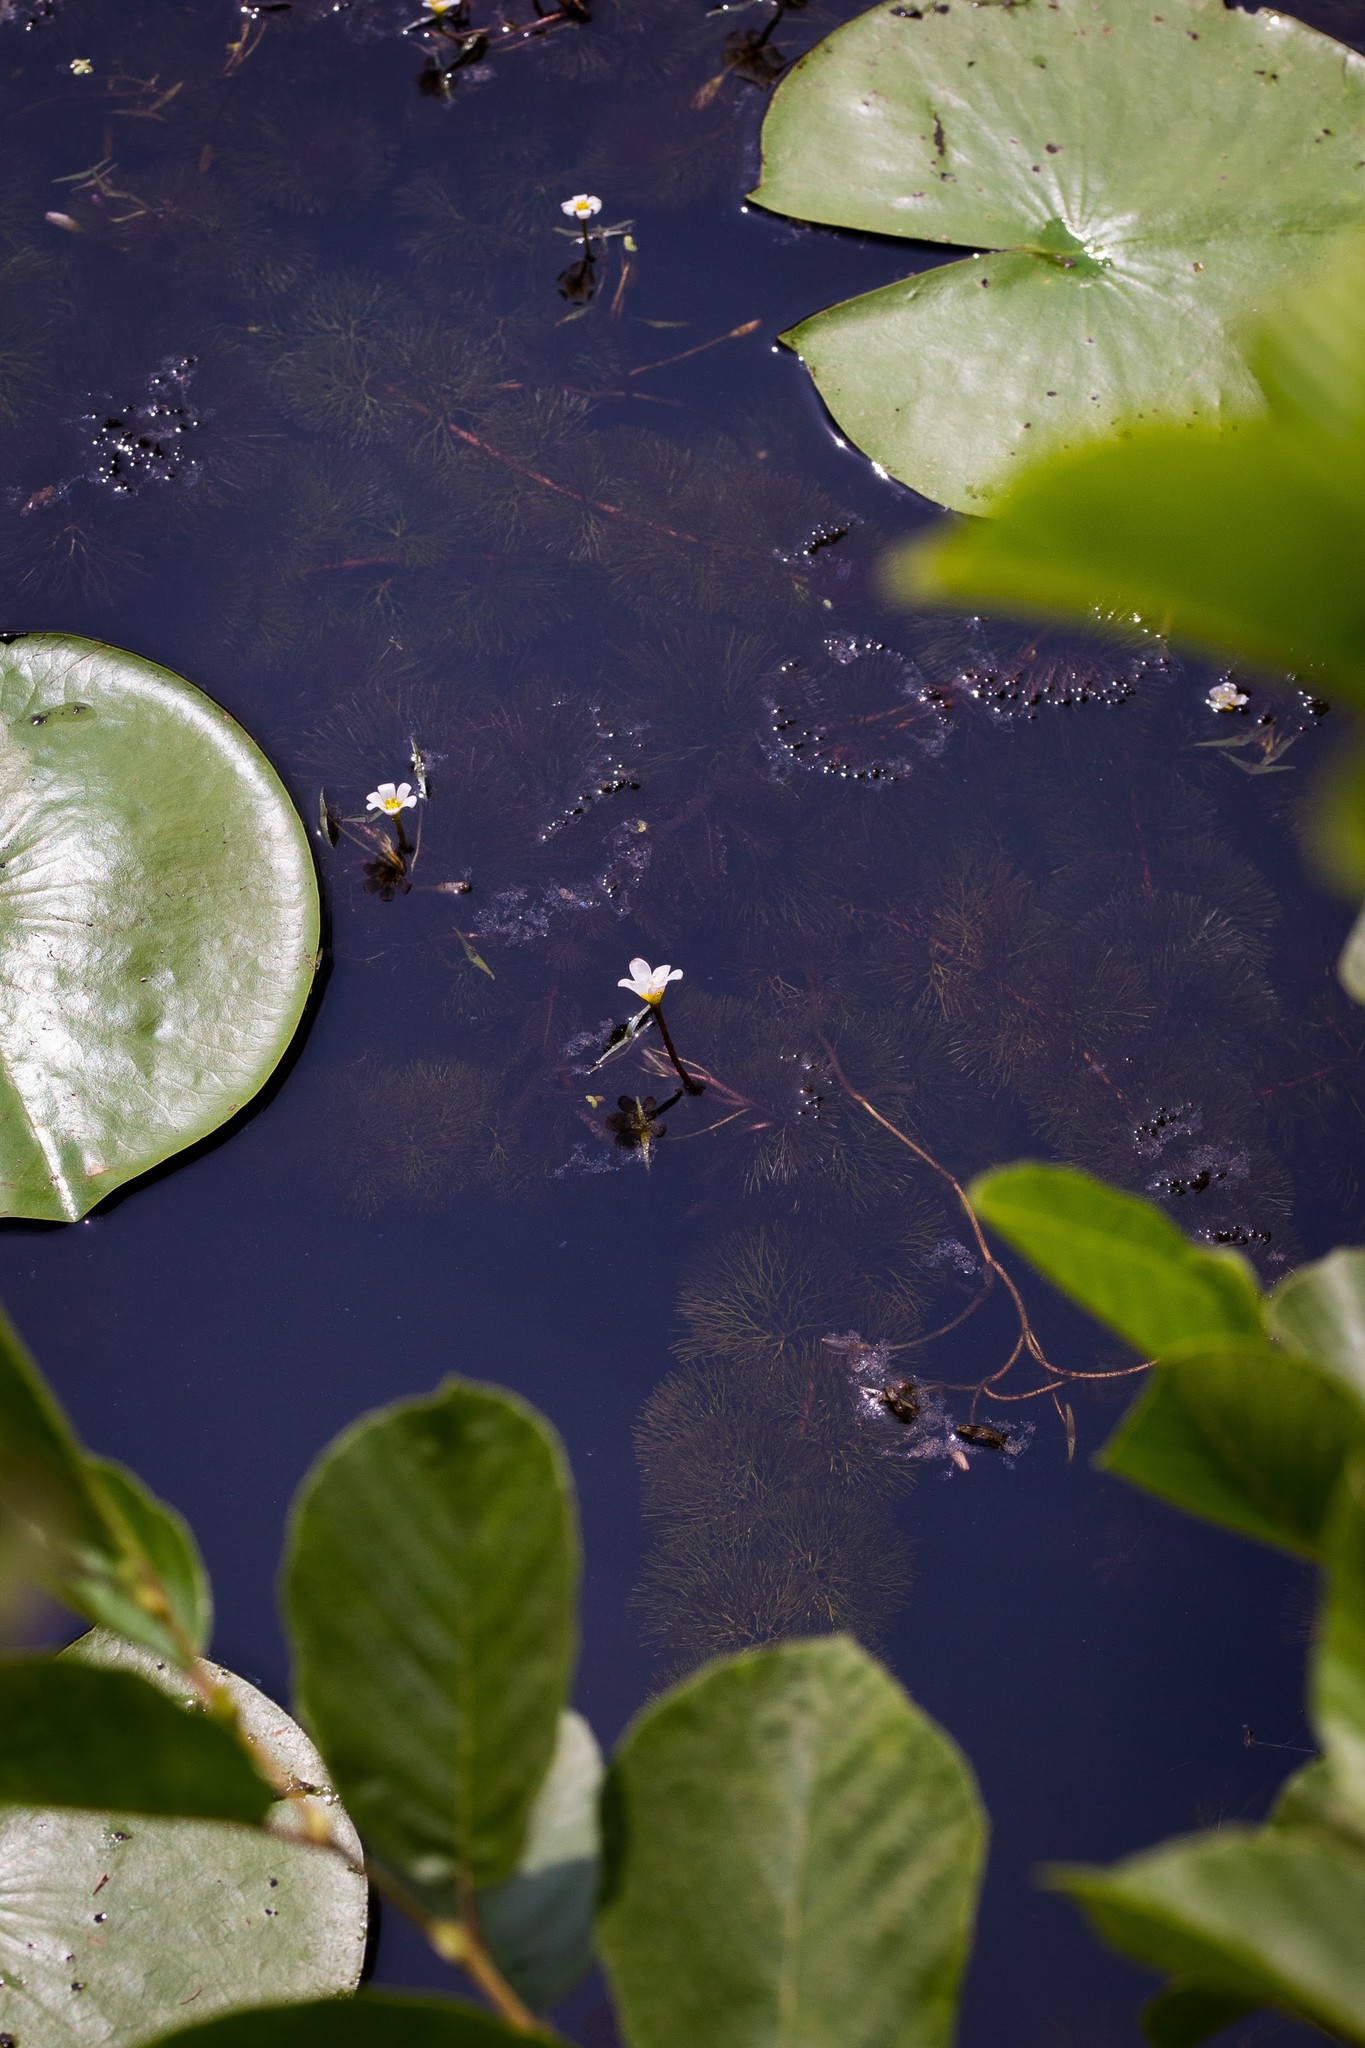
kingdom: Plantae
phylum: Tracheophyta
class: Magnoliopsida
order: Nymphaeales
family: Cabombaceae
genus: Cabomba
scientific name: Cabomba caroliniana
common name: Fanwort
